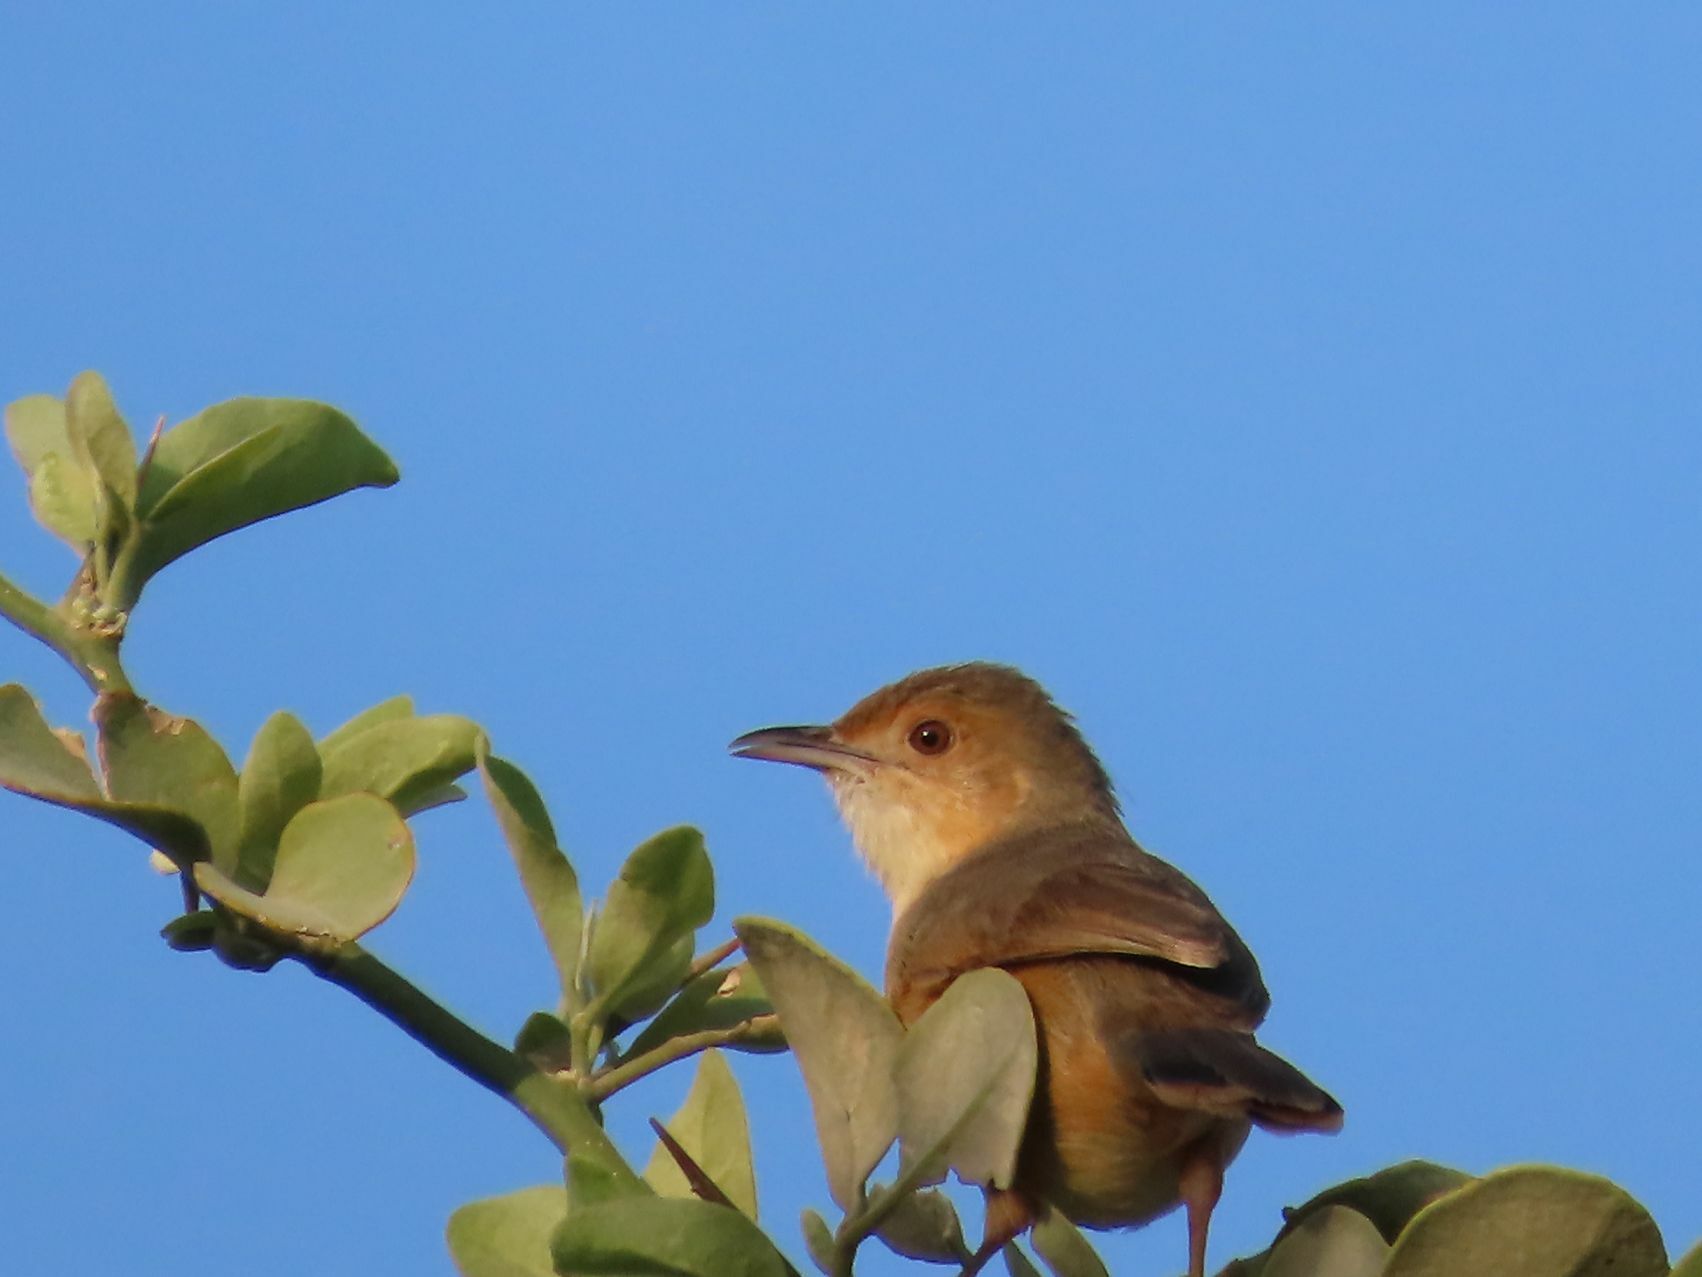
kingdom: Animalia
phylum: Chordata
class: Aves
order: Passeriformes
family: Cisticolidae
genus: Cisticola
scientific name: Cisticola erythrops
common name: Red-faced cisticola
